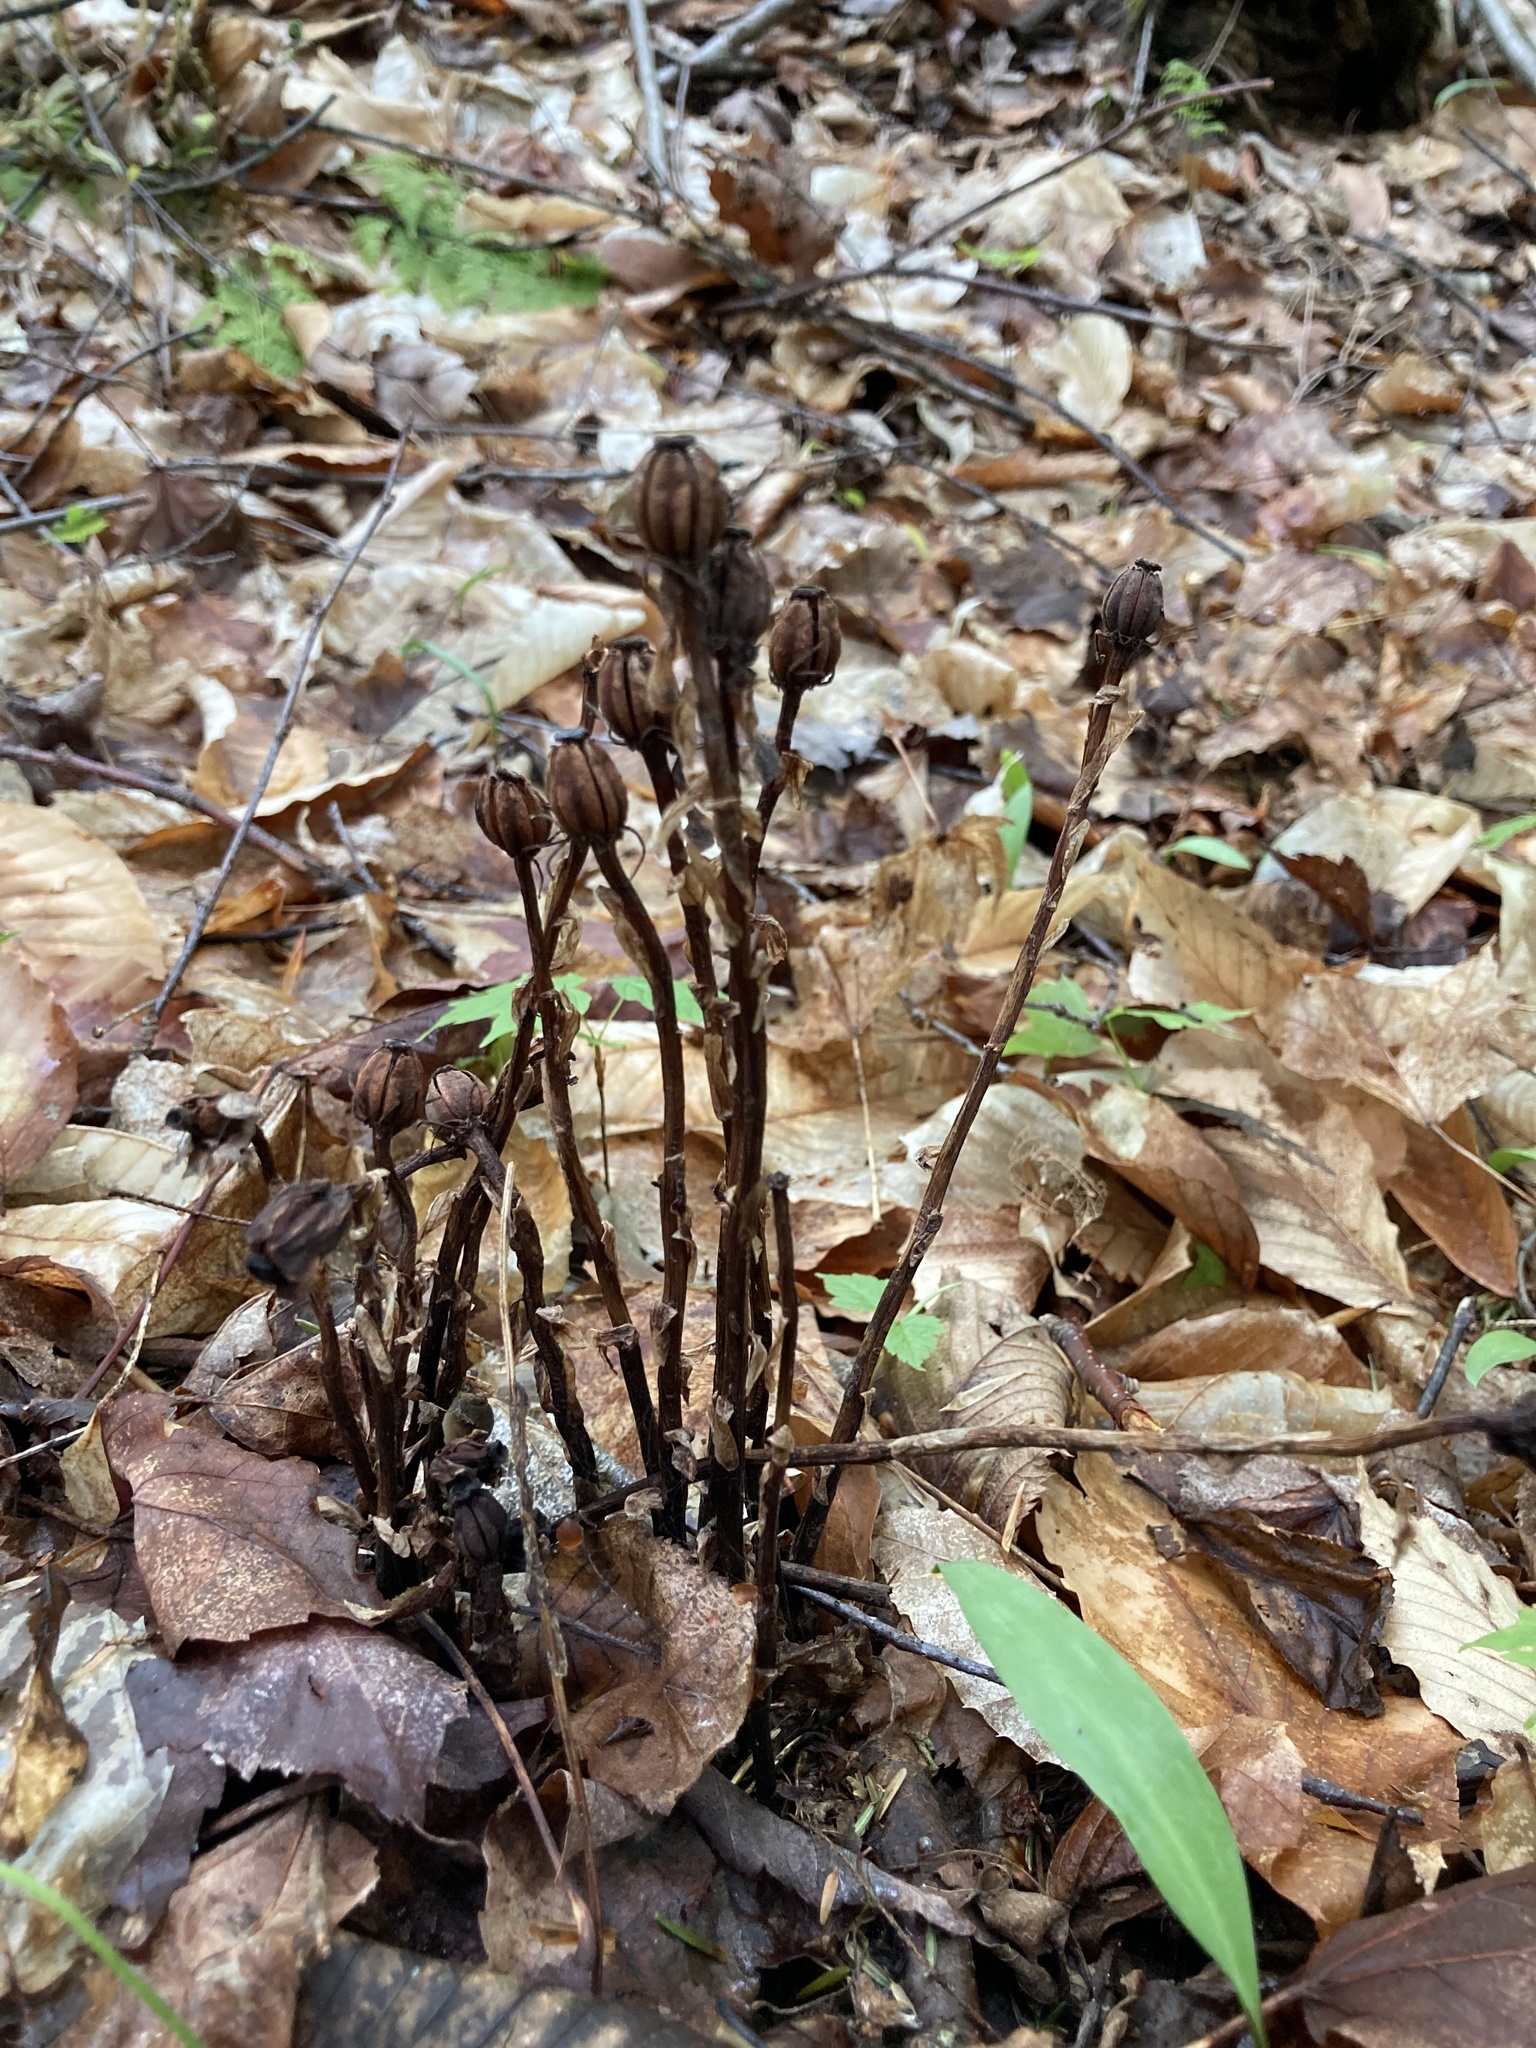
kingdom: Plantae
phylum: Tracheophyta
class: Magnoliopsida
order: Ericales
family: Ericaceae
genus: Monotropa
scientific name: Monotropa uniflora
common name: Convulsion root
